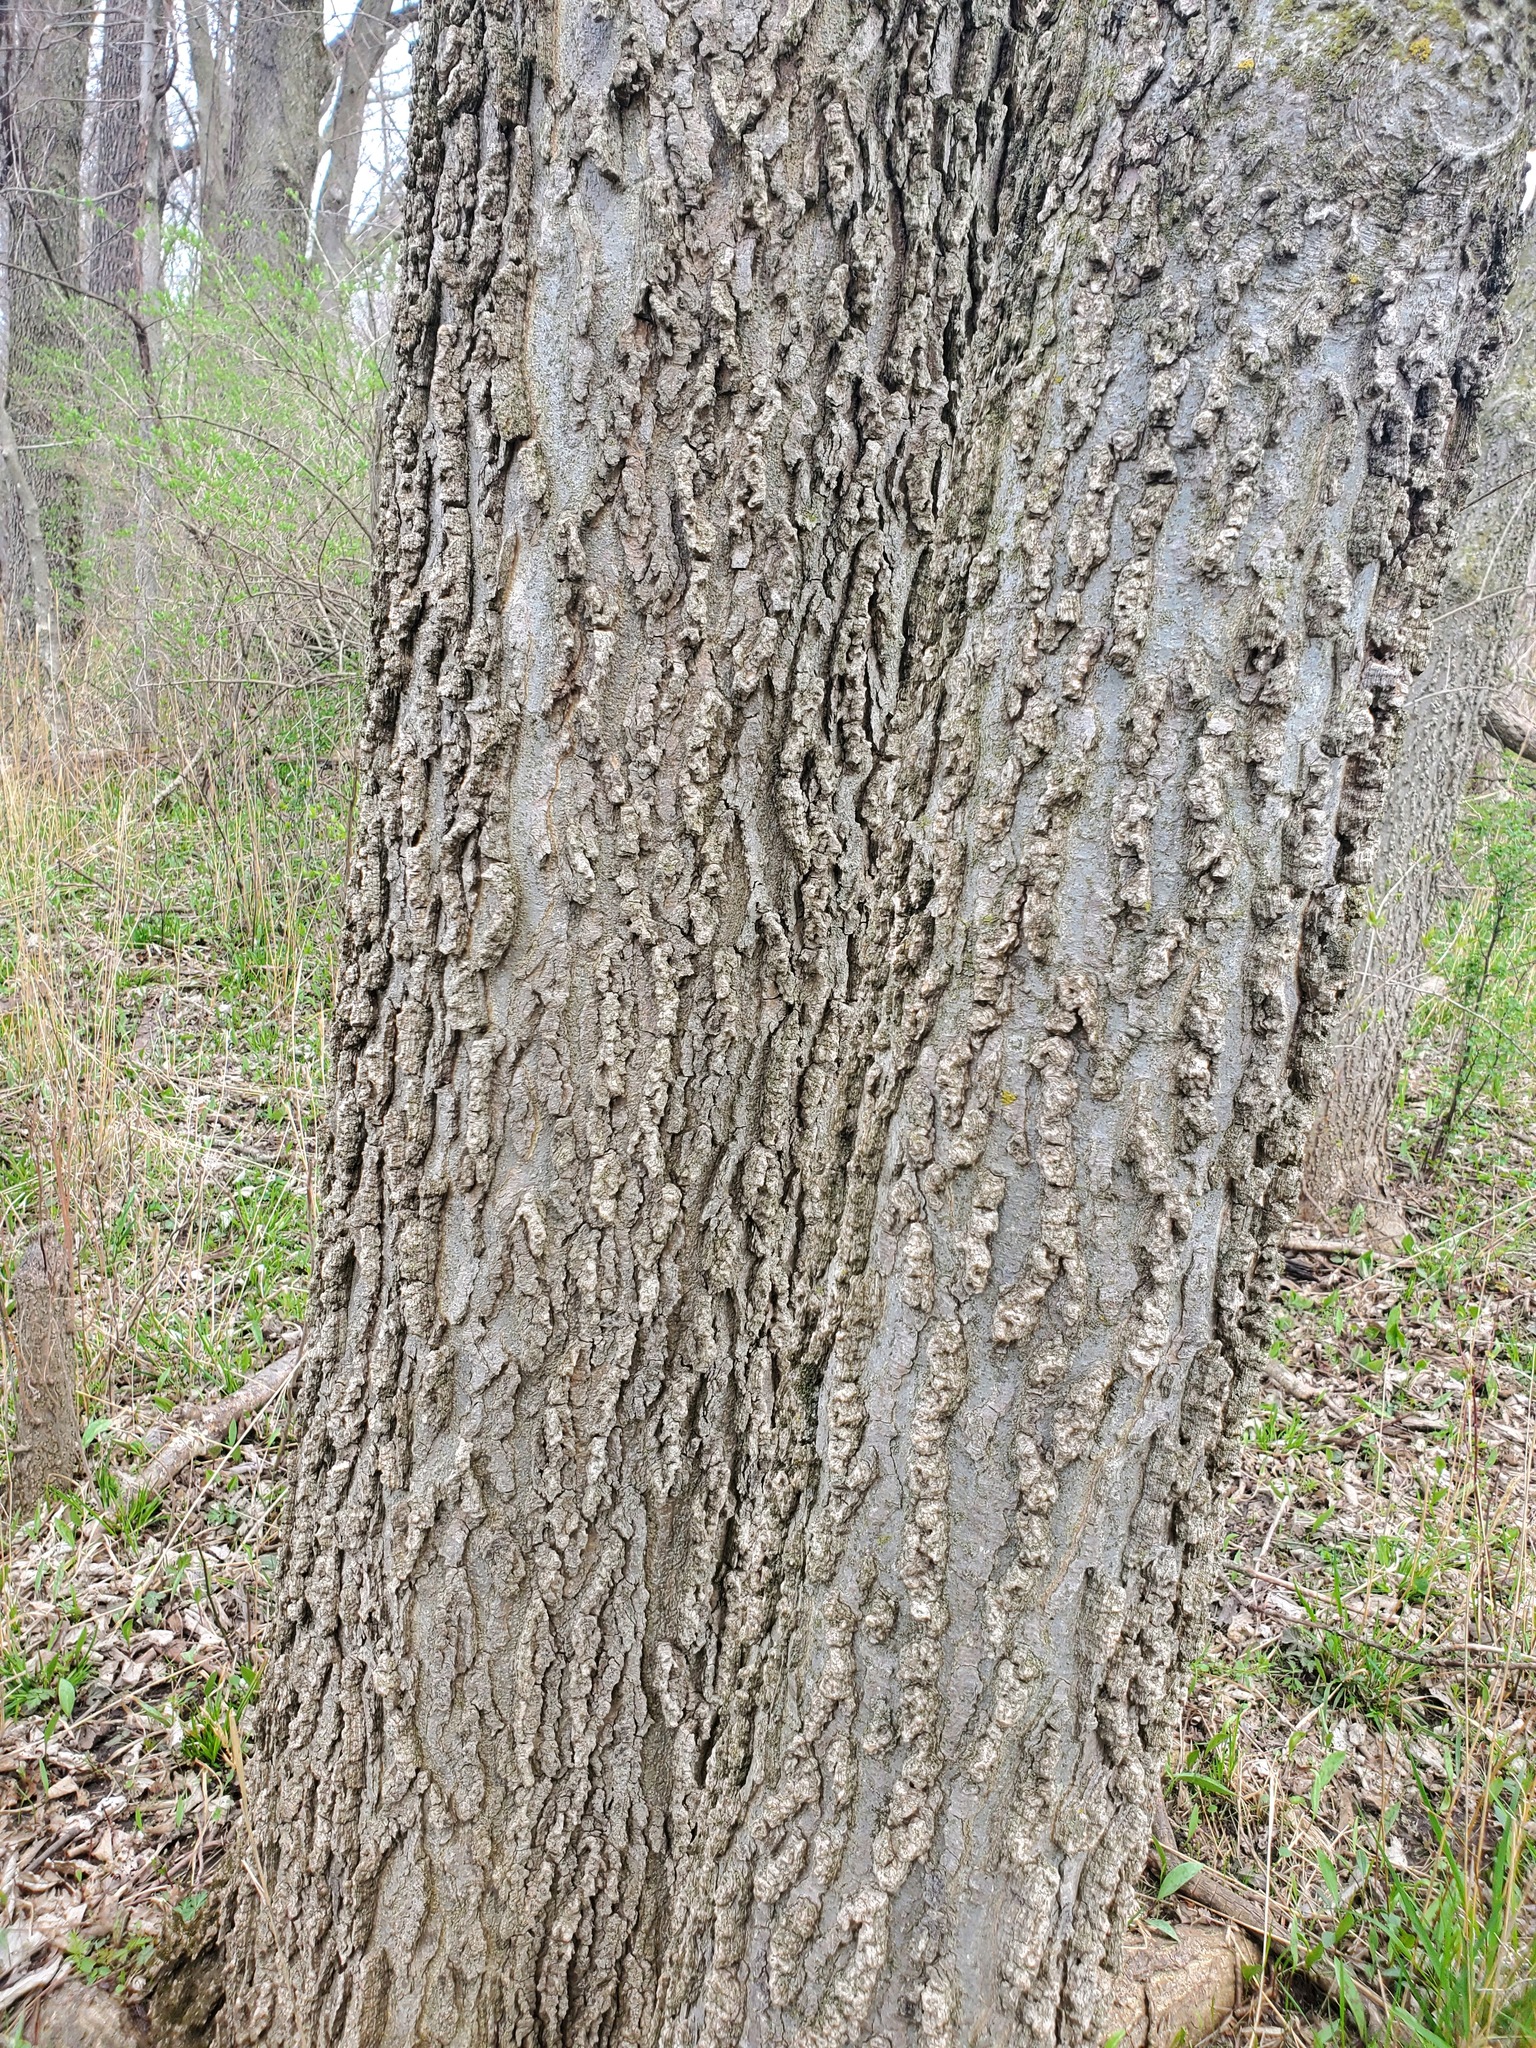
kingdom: Plantae
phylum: Tracheophyta
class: Magnoliopsida
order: Rosales
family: Cannabaceae
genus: Celtis
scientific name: Celtis occidentalis
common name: Common hackberry
